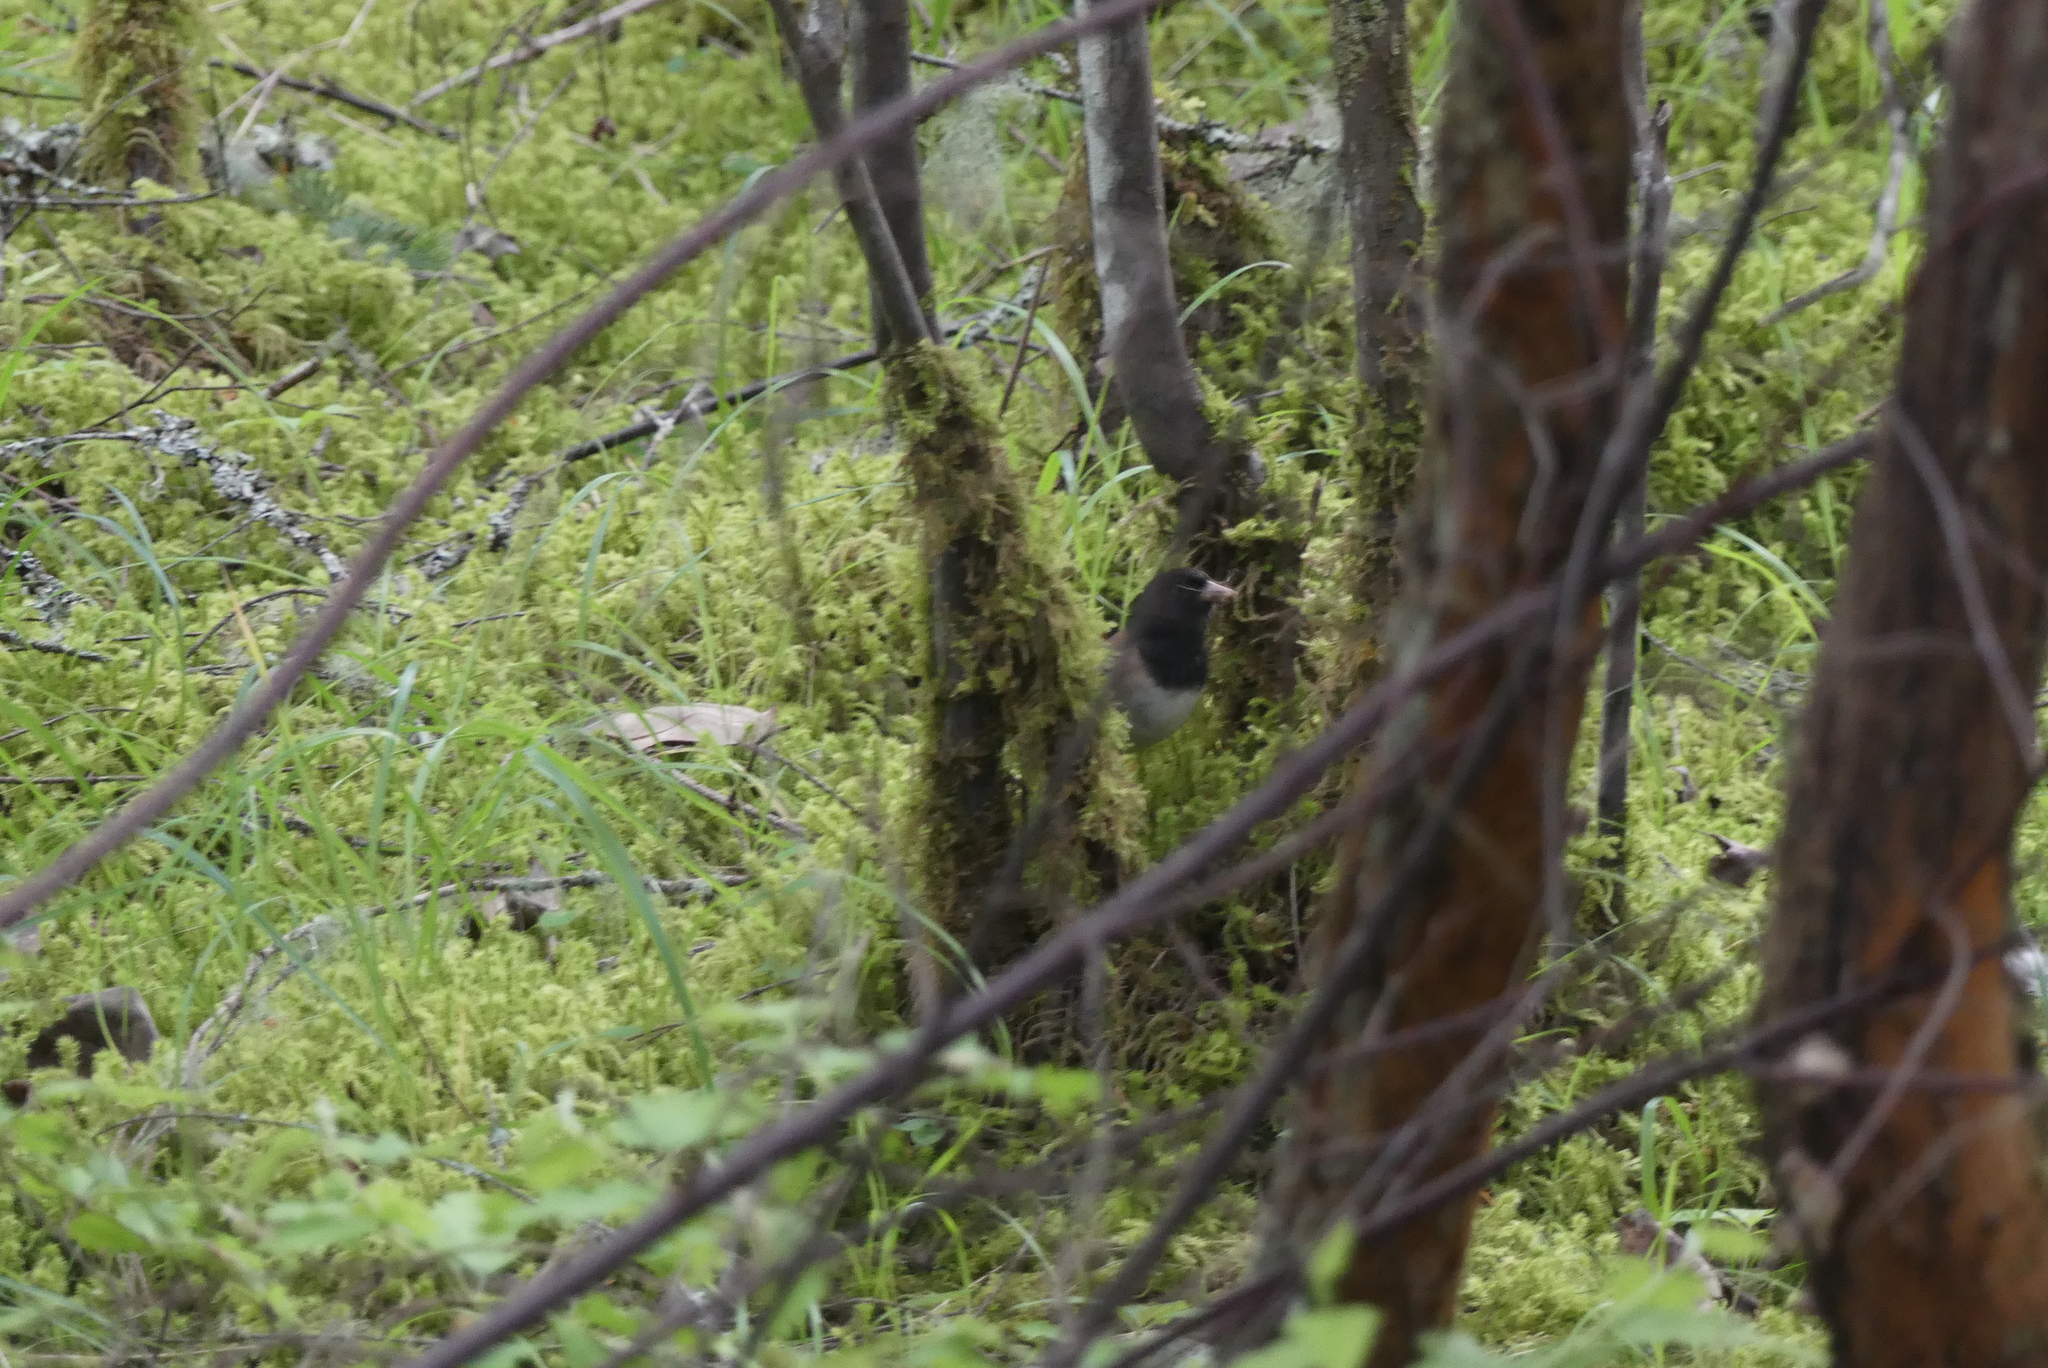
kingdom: Animalia
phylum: Chordata
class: Aves
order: Passeriformes
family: Passerellidae
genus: Junco
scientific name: Junco hyemalis
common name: Dark-eyed junco
